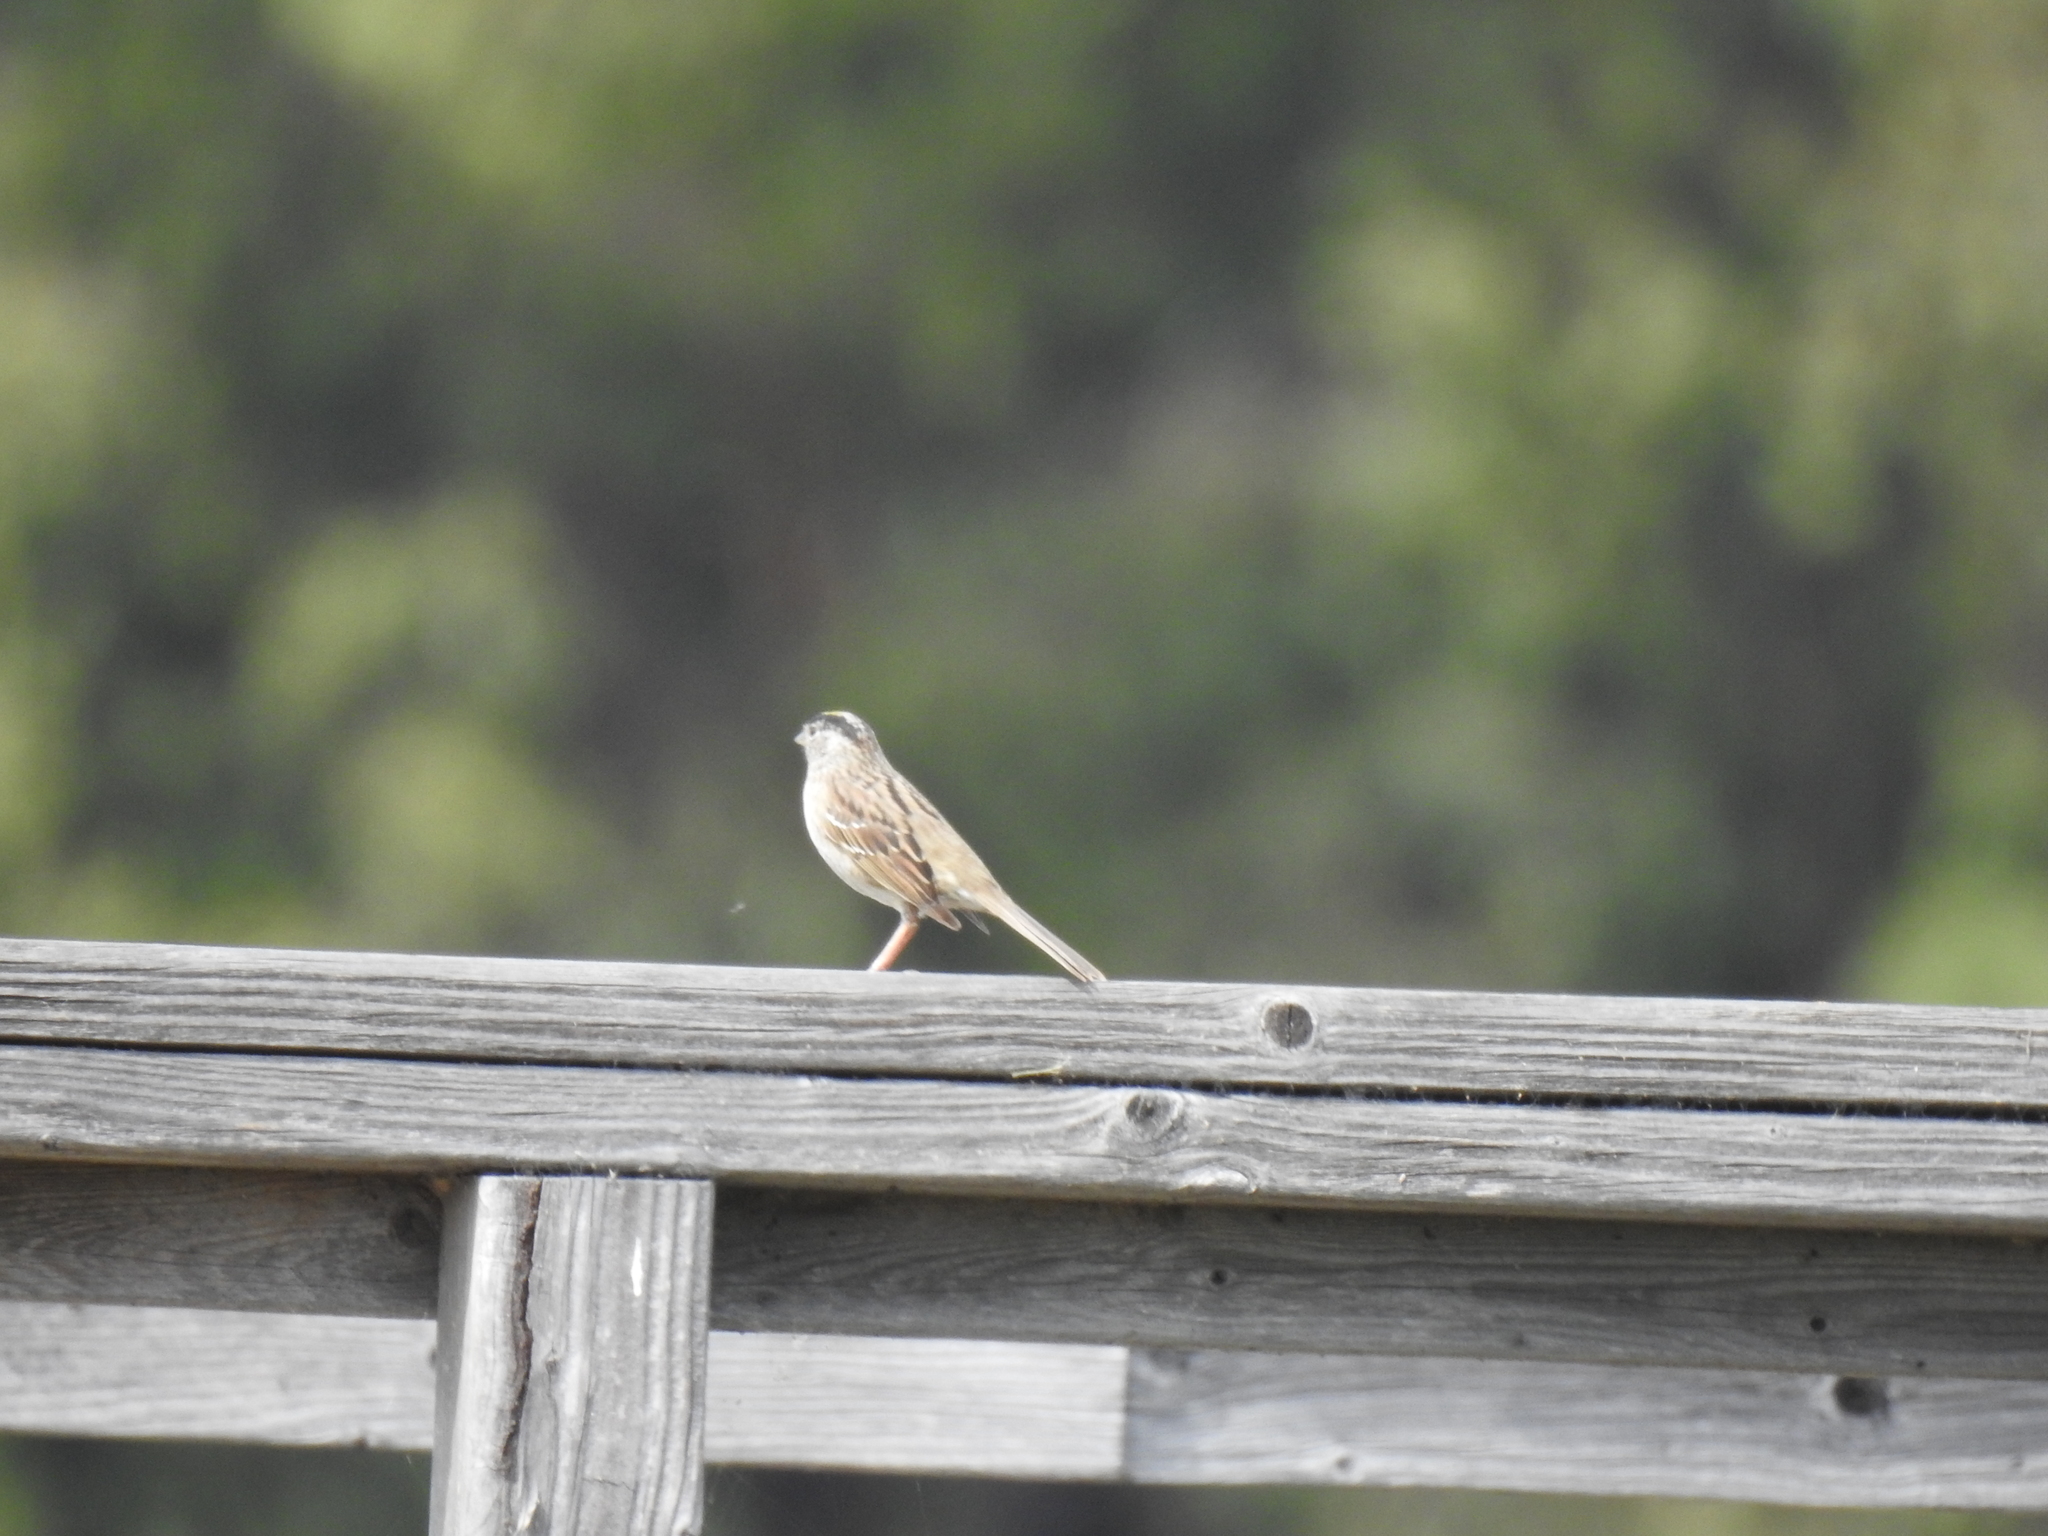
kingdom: Animalia
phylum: Chordata
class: Aves
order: Passeriformes
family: Passerellidae
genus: Zonotrichia
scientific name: Zonotrichia atricapilla
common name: Golden-crowned sparrow
